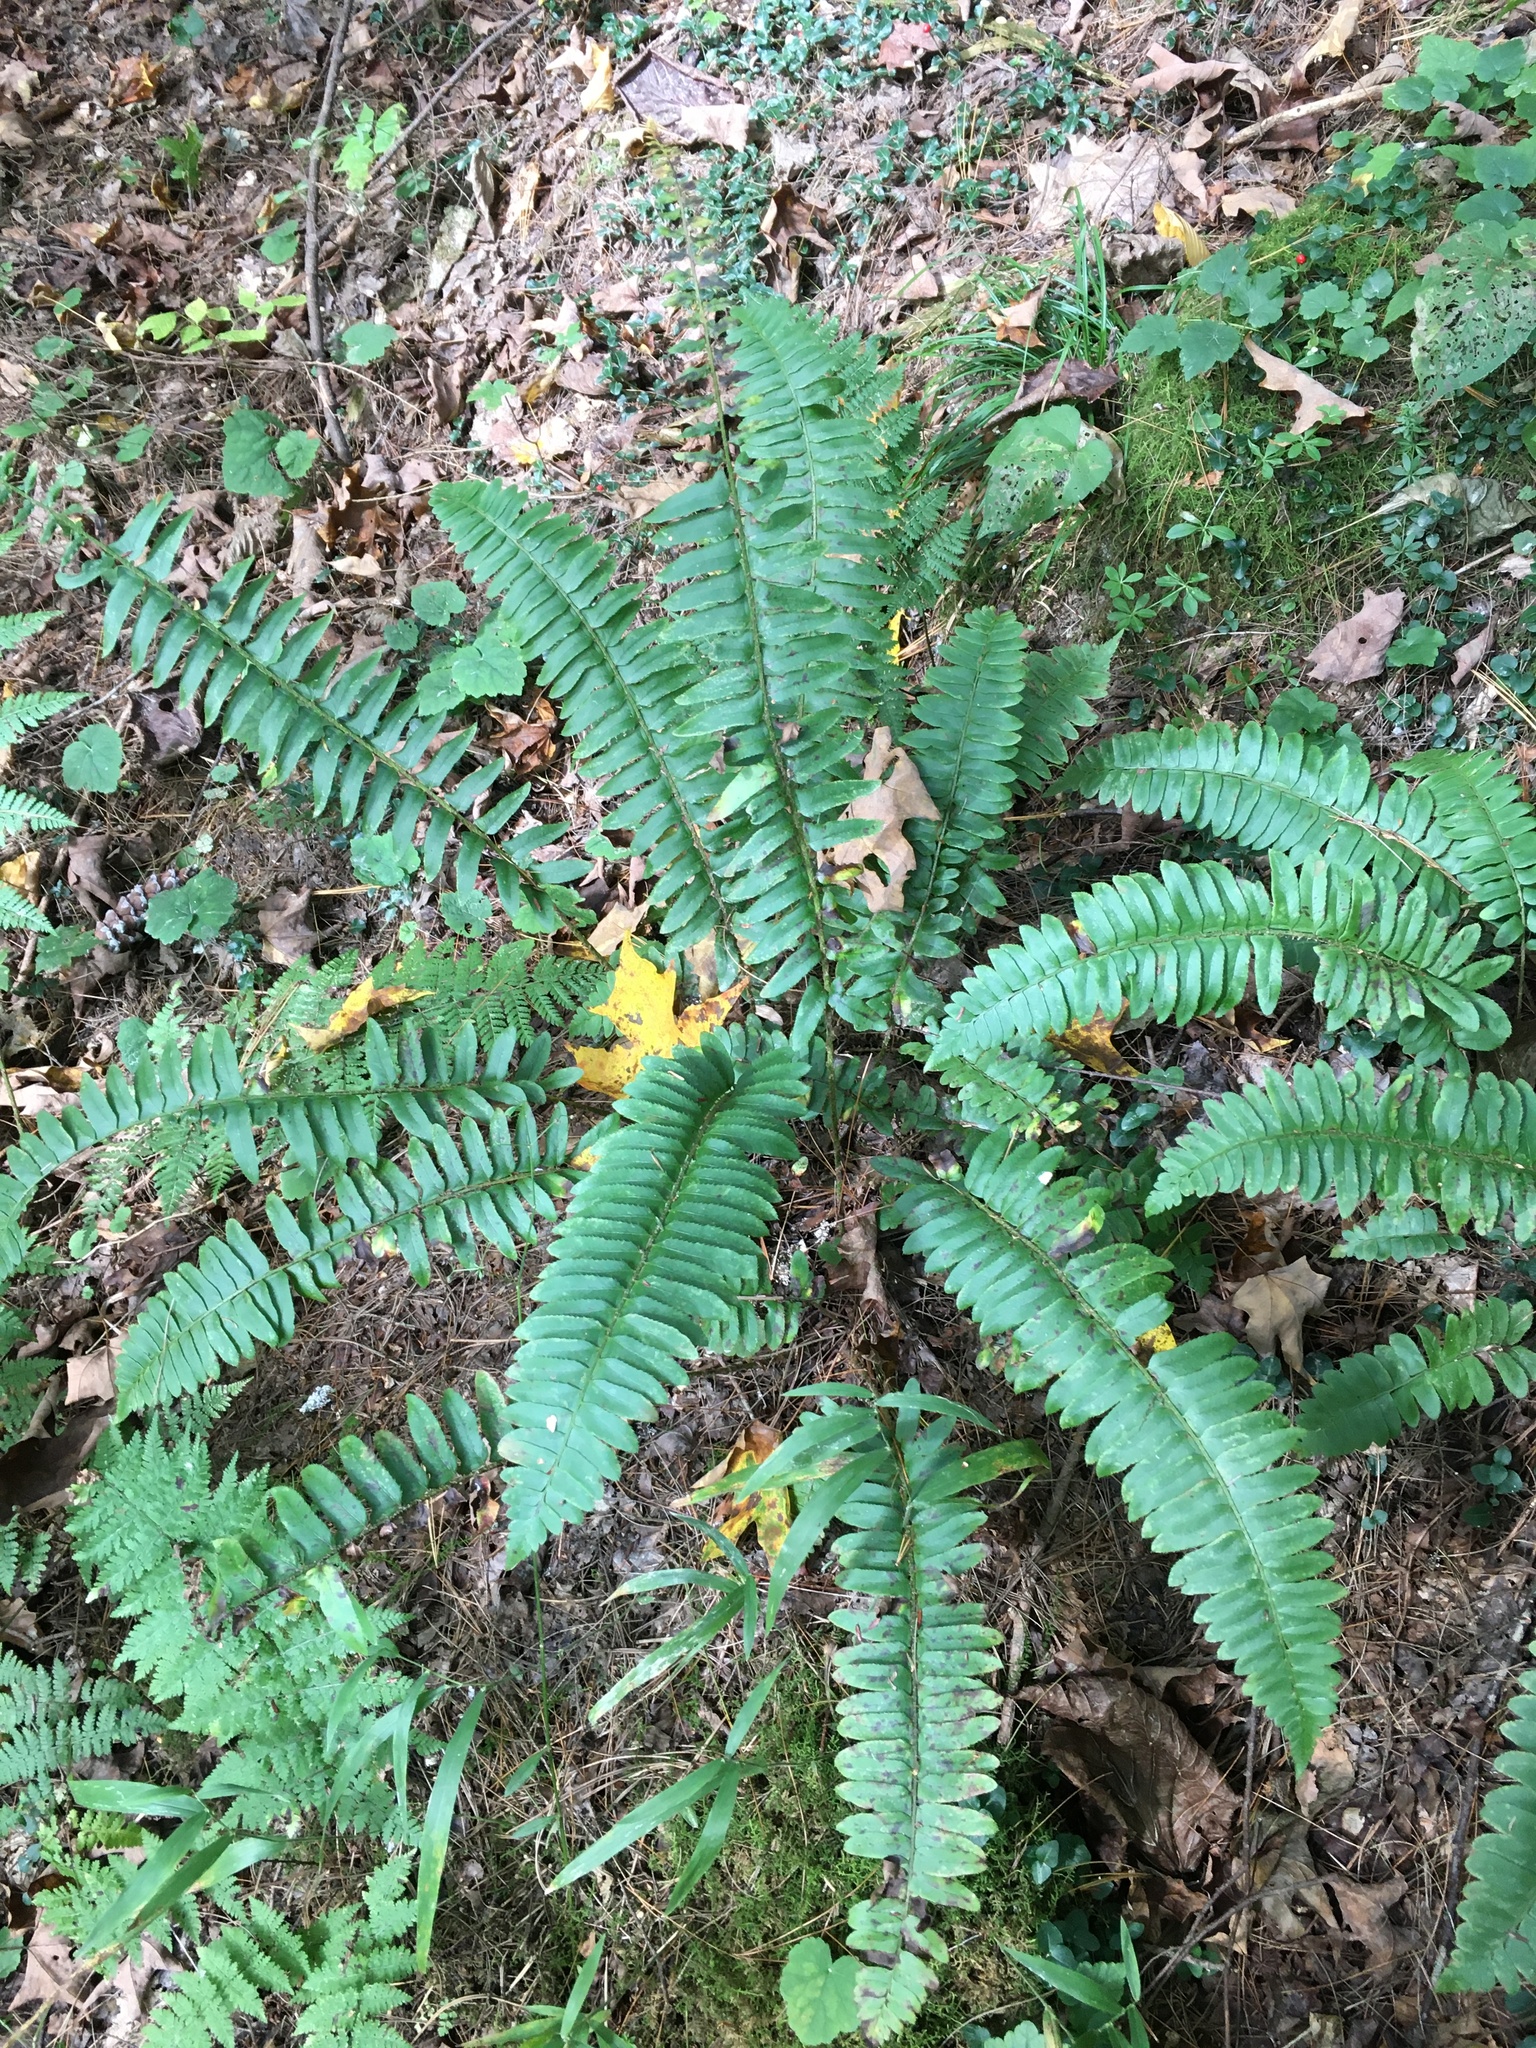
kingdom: Plantae
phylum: Tracheophyta
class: Polypodiopsida
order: Polypodiales
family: Dryopteridaceae
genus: Polystichum
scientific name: Polystichum acrostichoides
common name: Christmas fern
